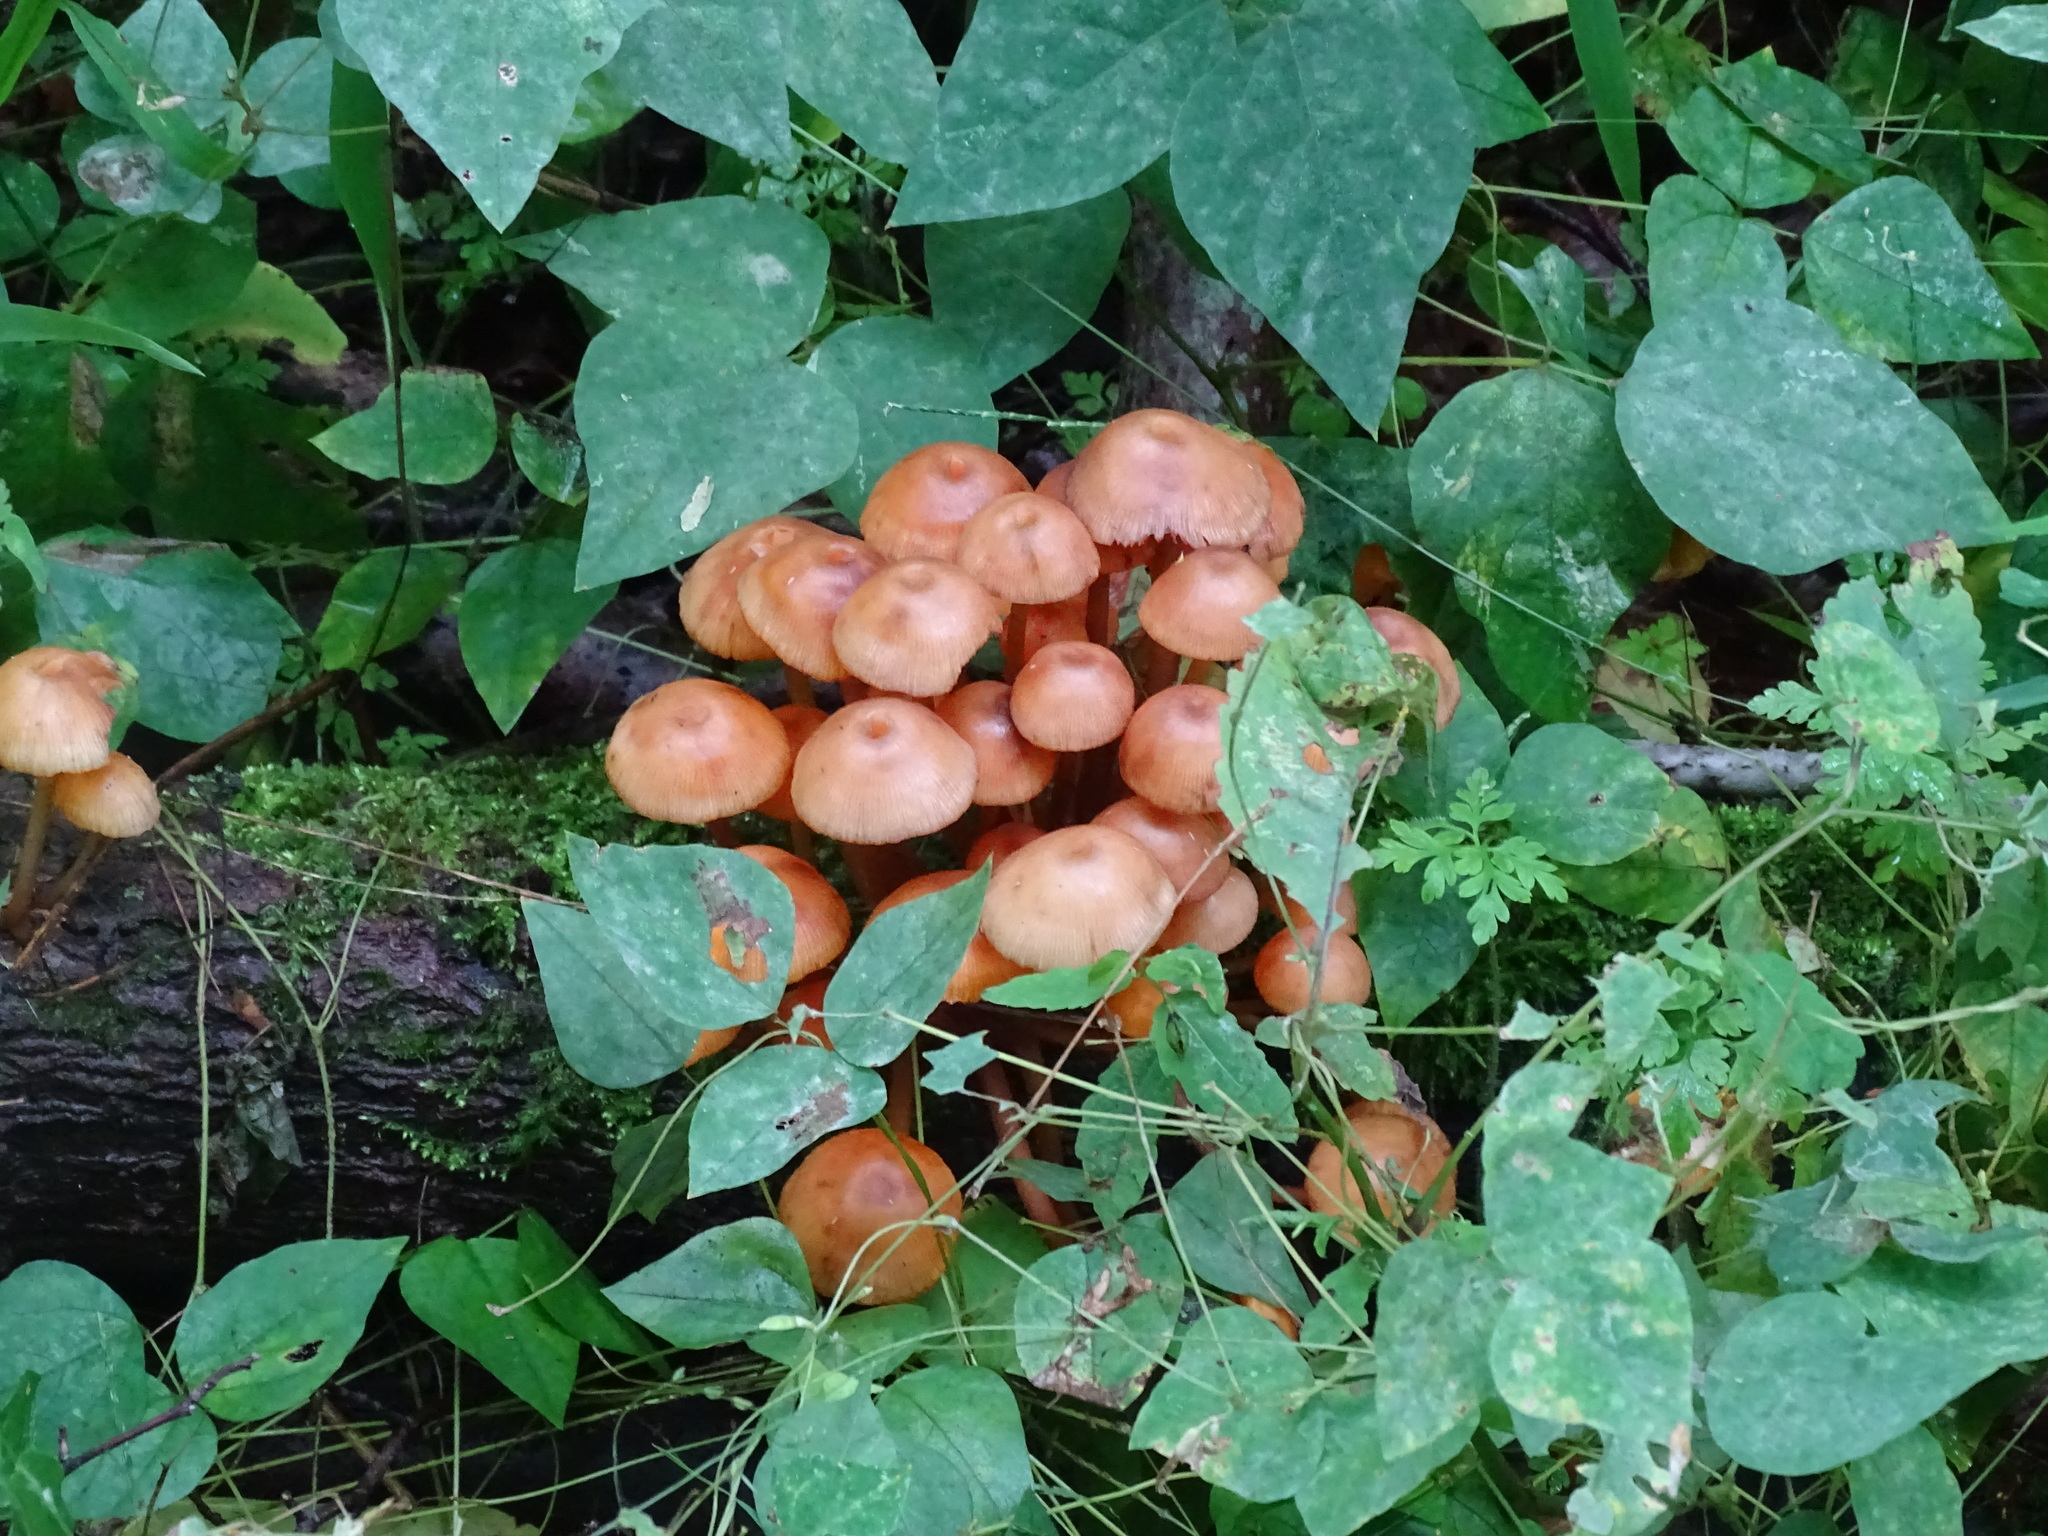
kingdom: Fungi
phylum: Basidiomycota
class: Agaricomycetes
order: Agaricales
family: Mycenaceae
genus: Mycena
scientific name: Mycena leaiana
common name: Orange mycena
